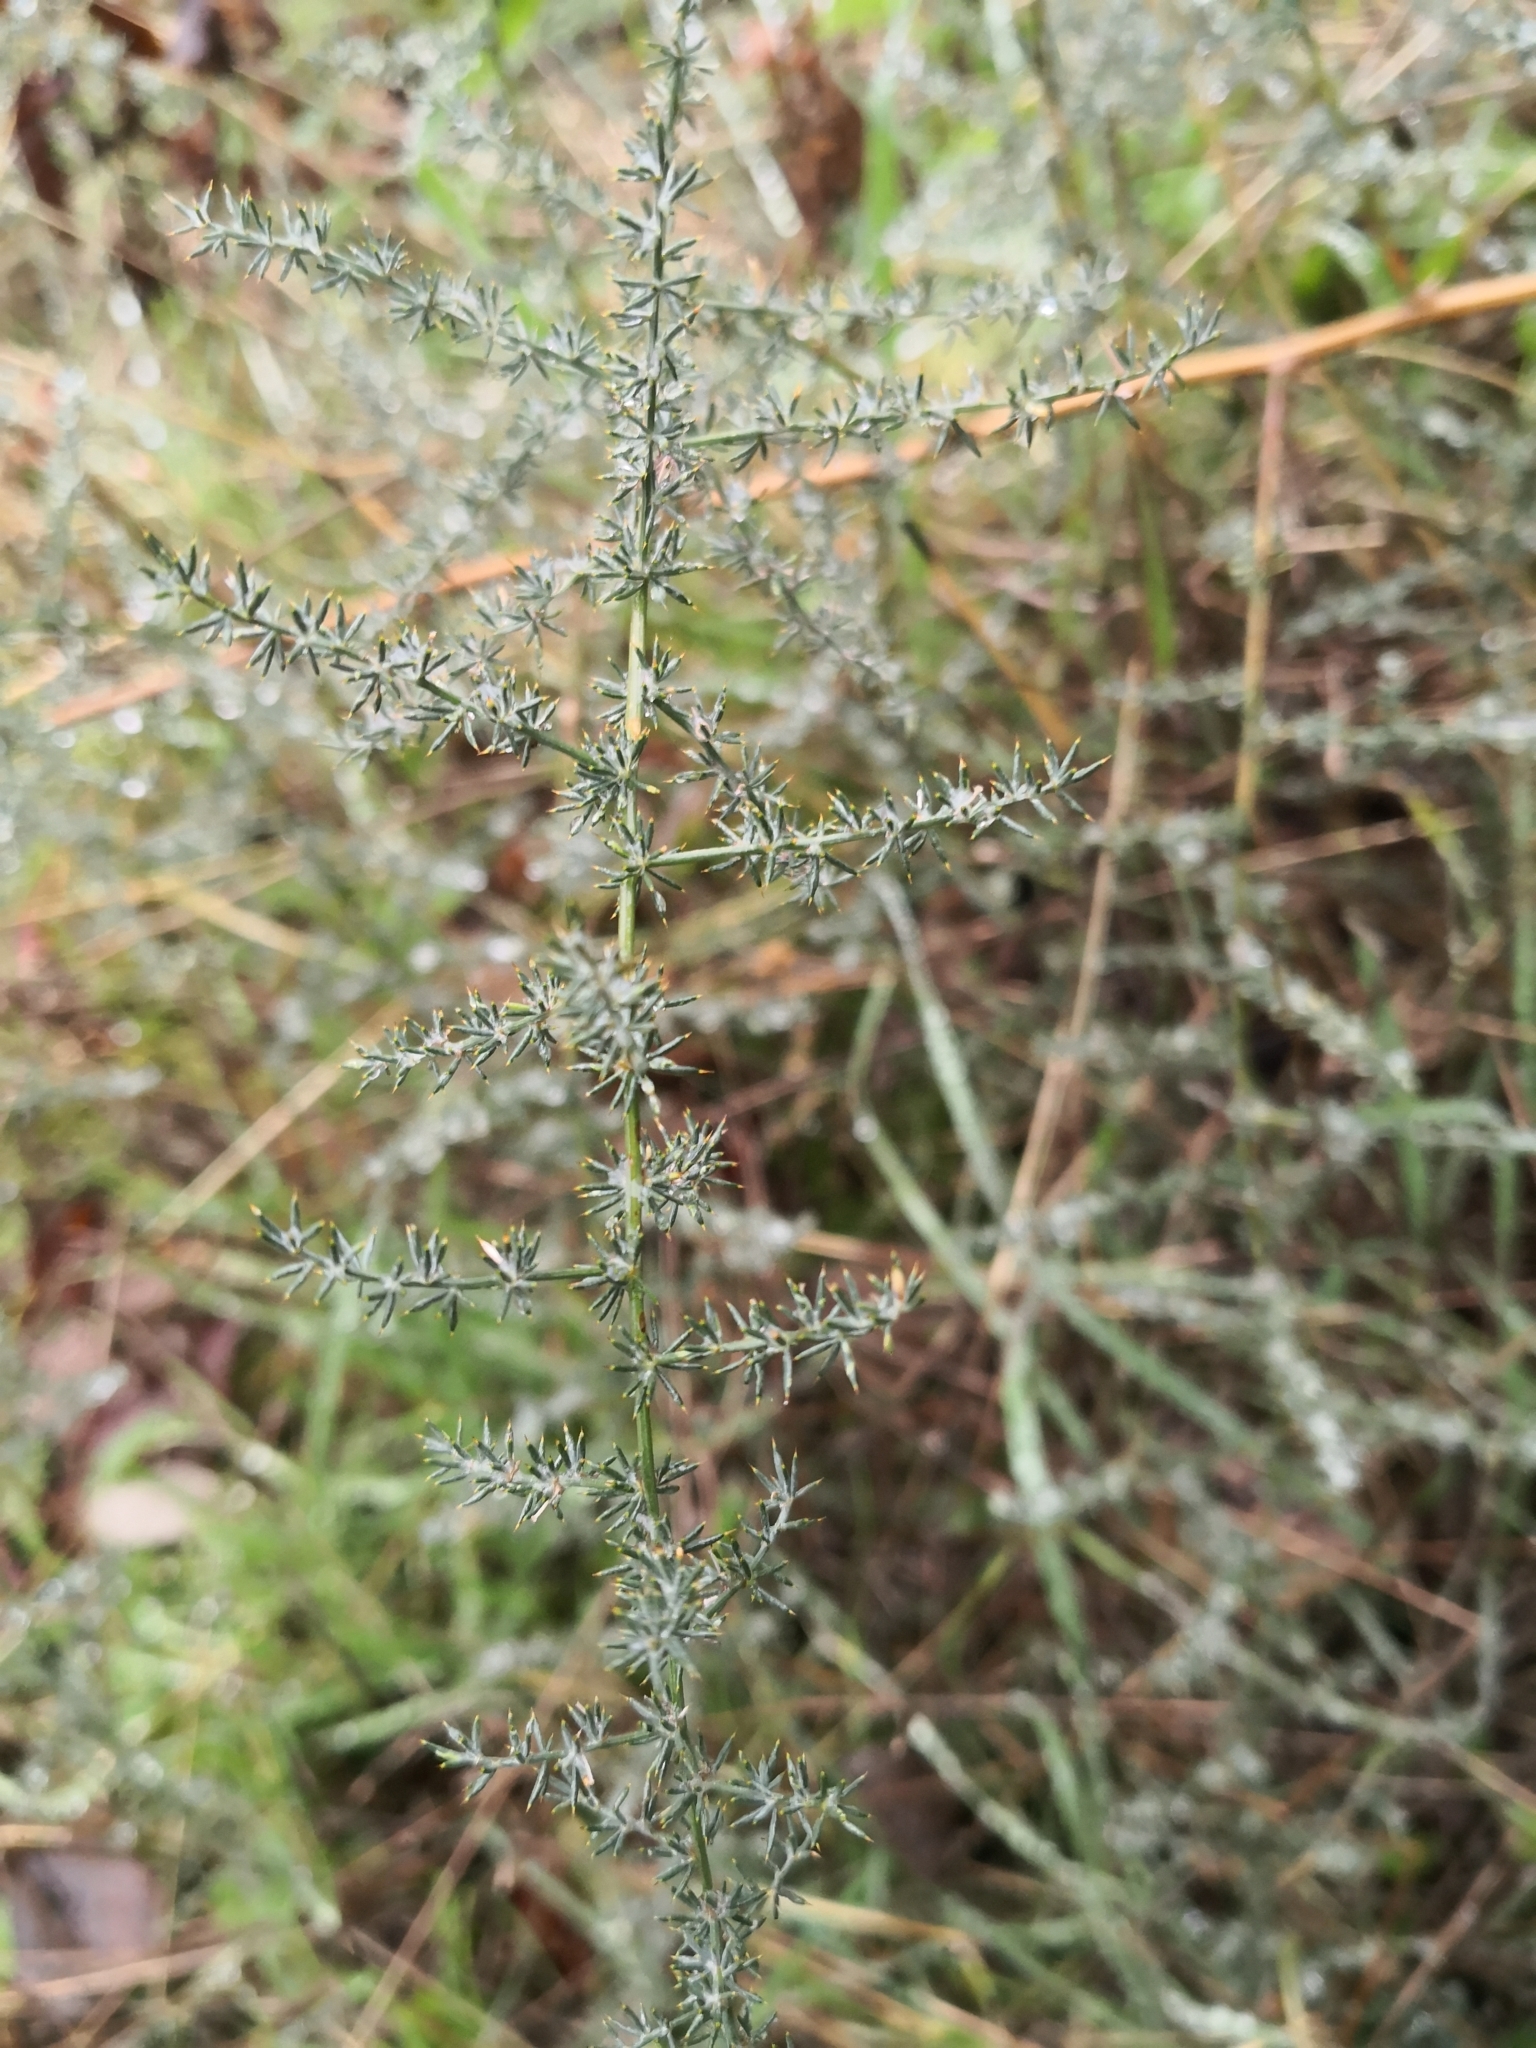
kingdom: Plantae
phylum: Tracheophyta
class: Liliopsida
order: Asparagales
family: Asparagaceae
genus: Asparagus
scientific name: Asparagus acutifolius
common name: Wild asparagus
